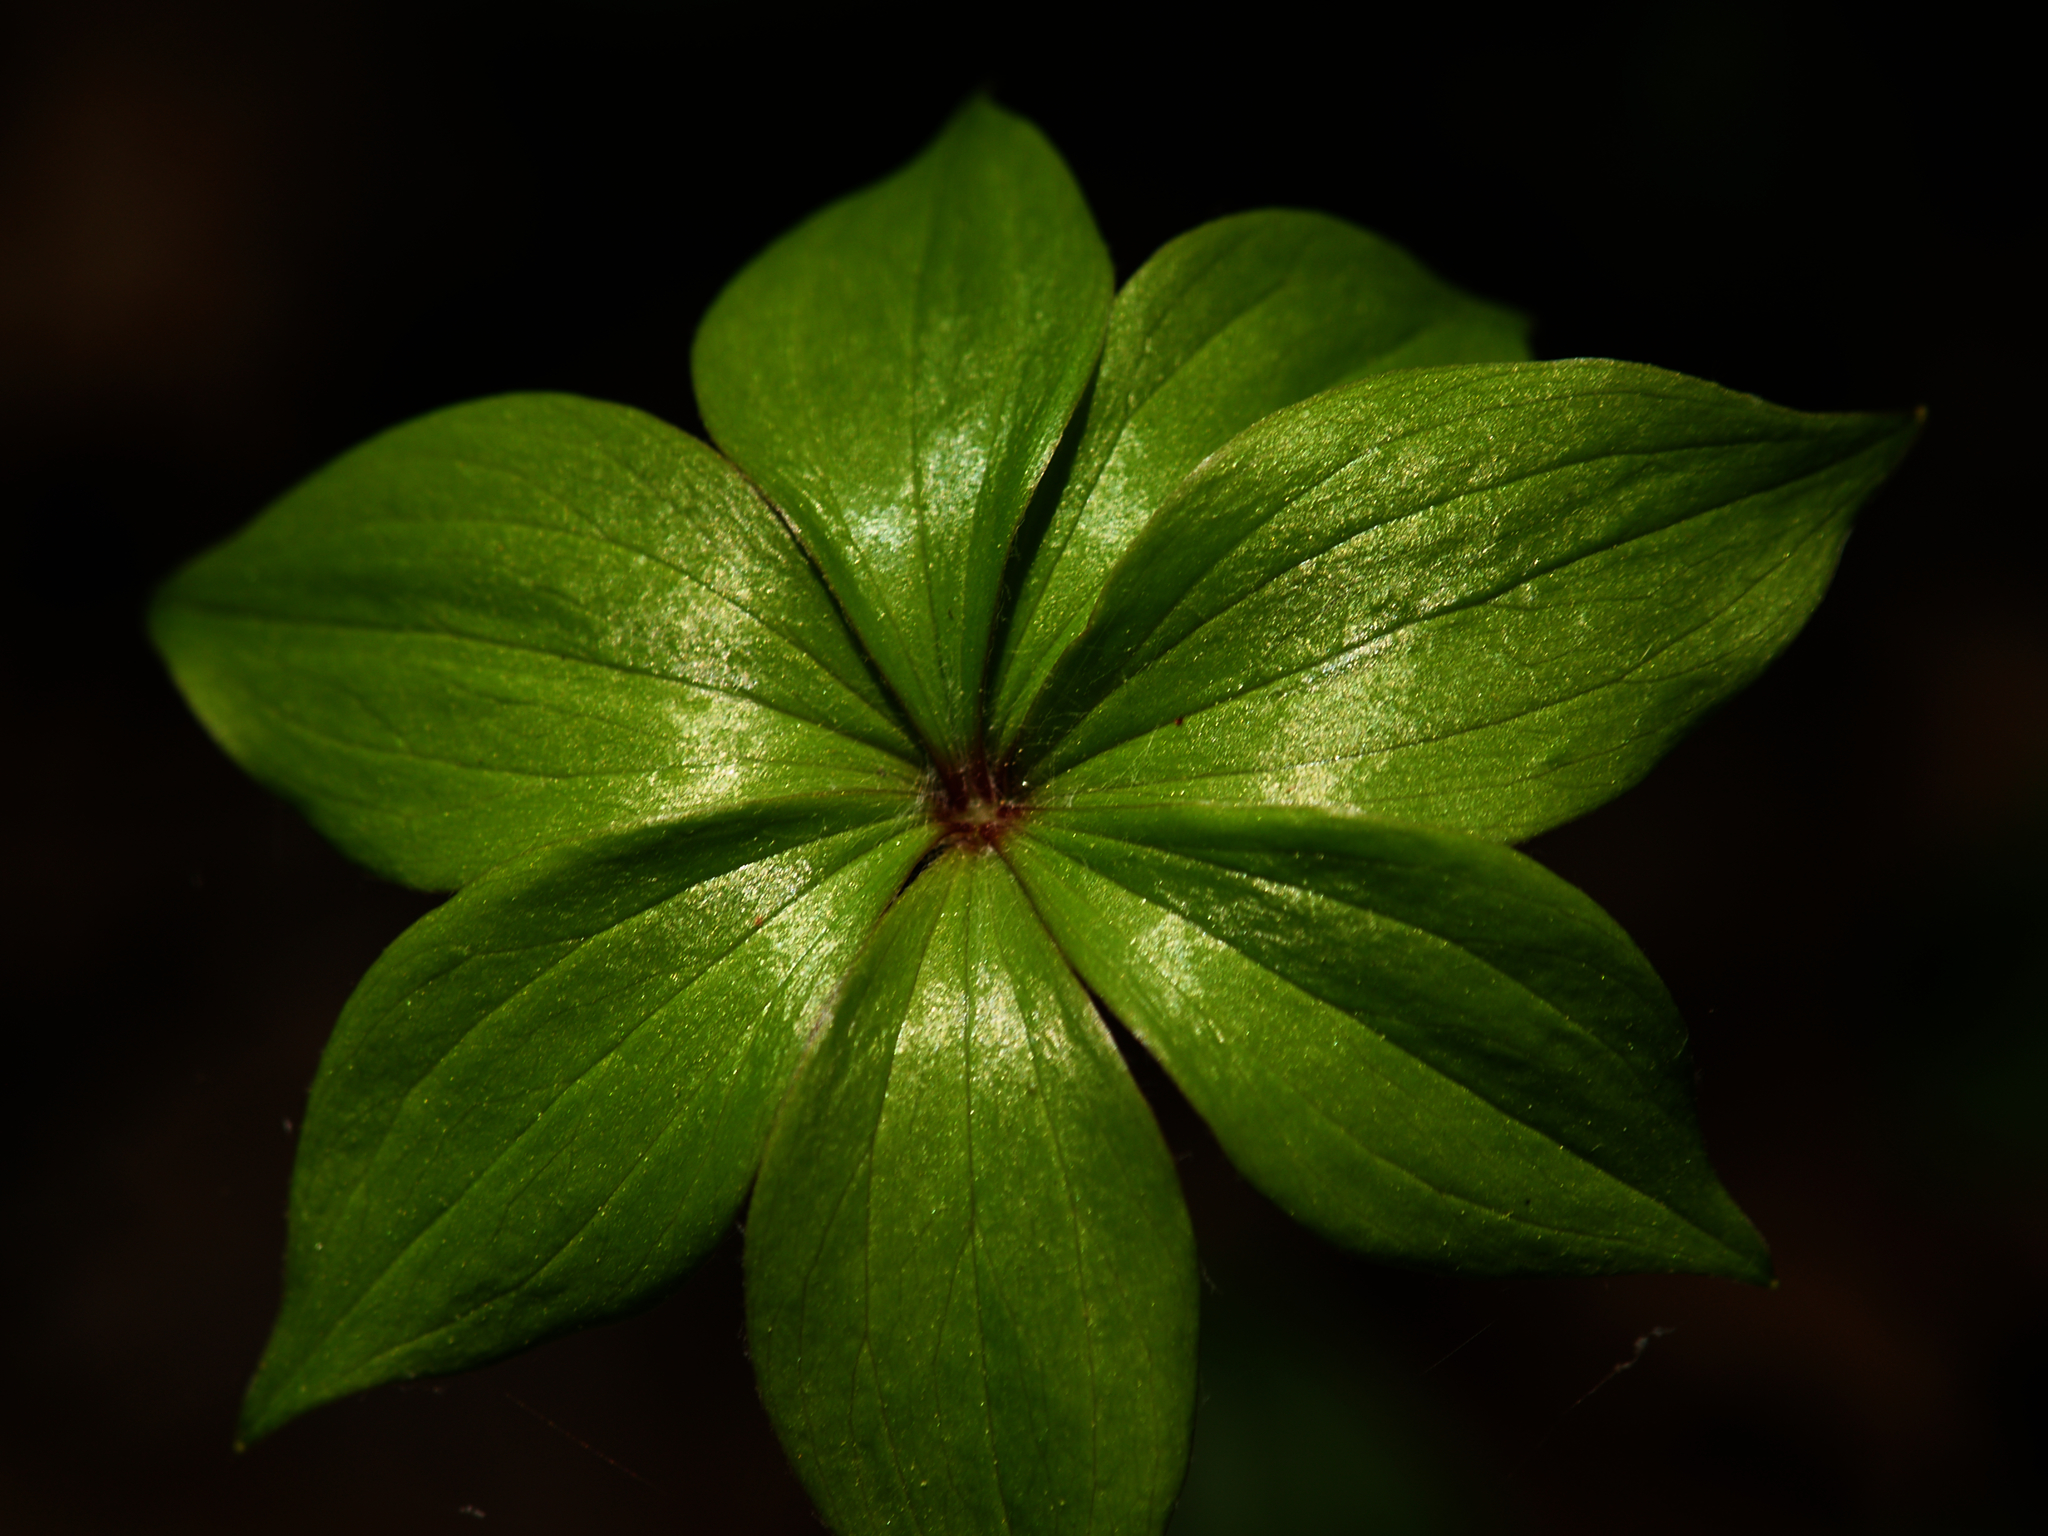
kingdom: Plantae
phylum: Tracheophyta
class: Liliopsida
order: Liliales
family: Liliaceae
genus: Medeola
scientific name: Medeola virginiana
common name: Indian cucumber-root
